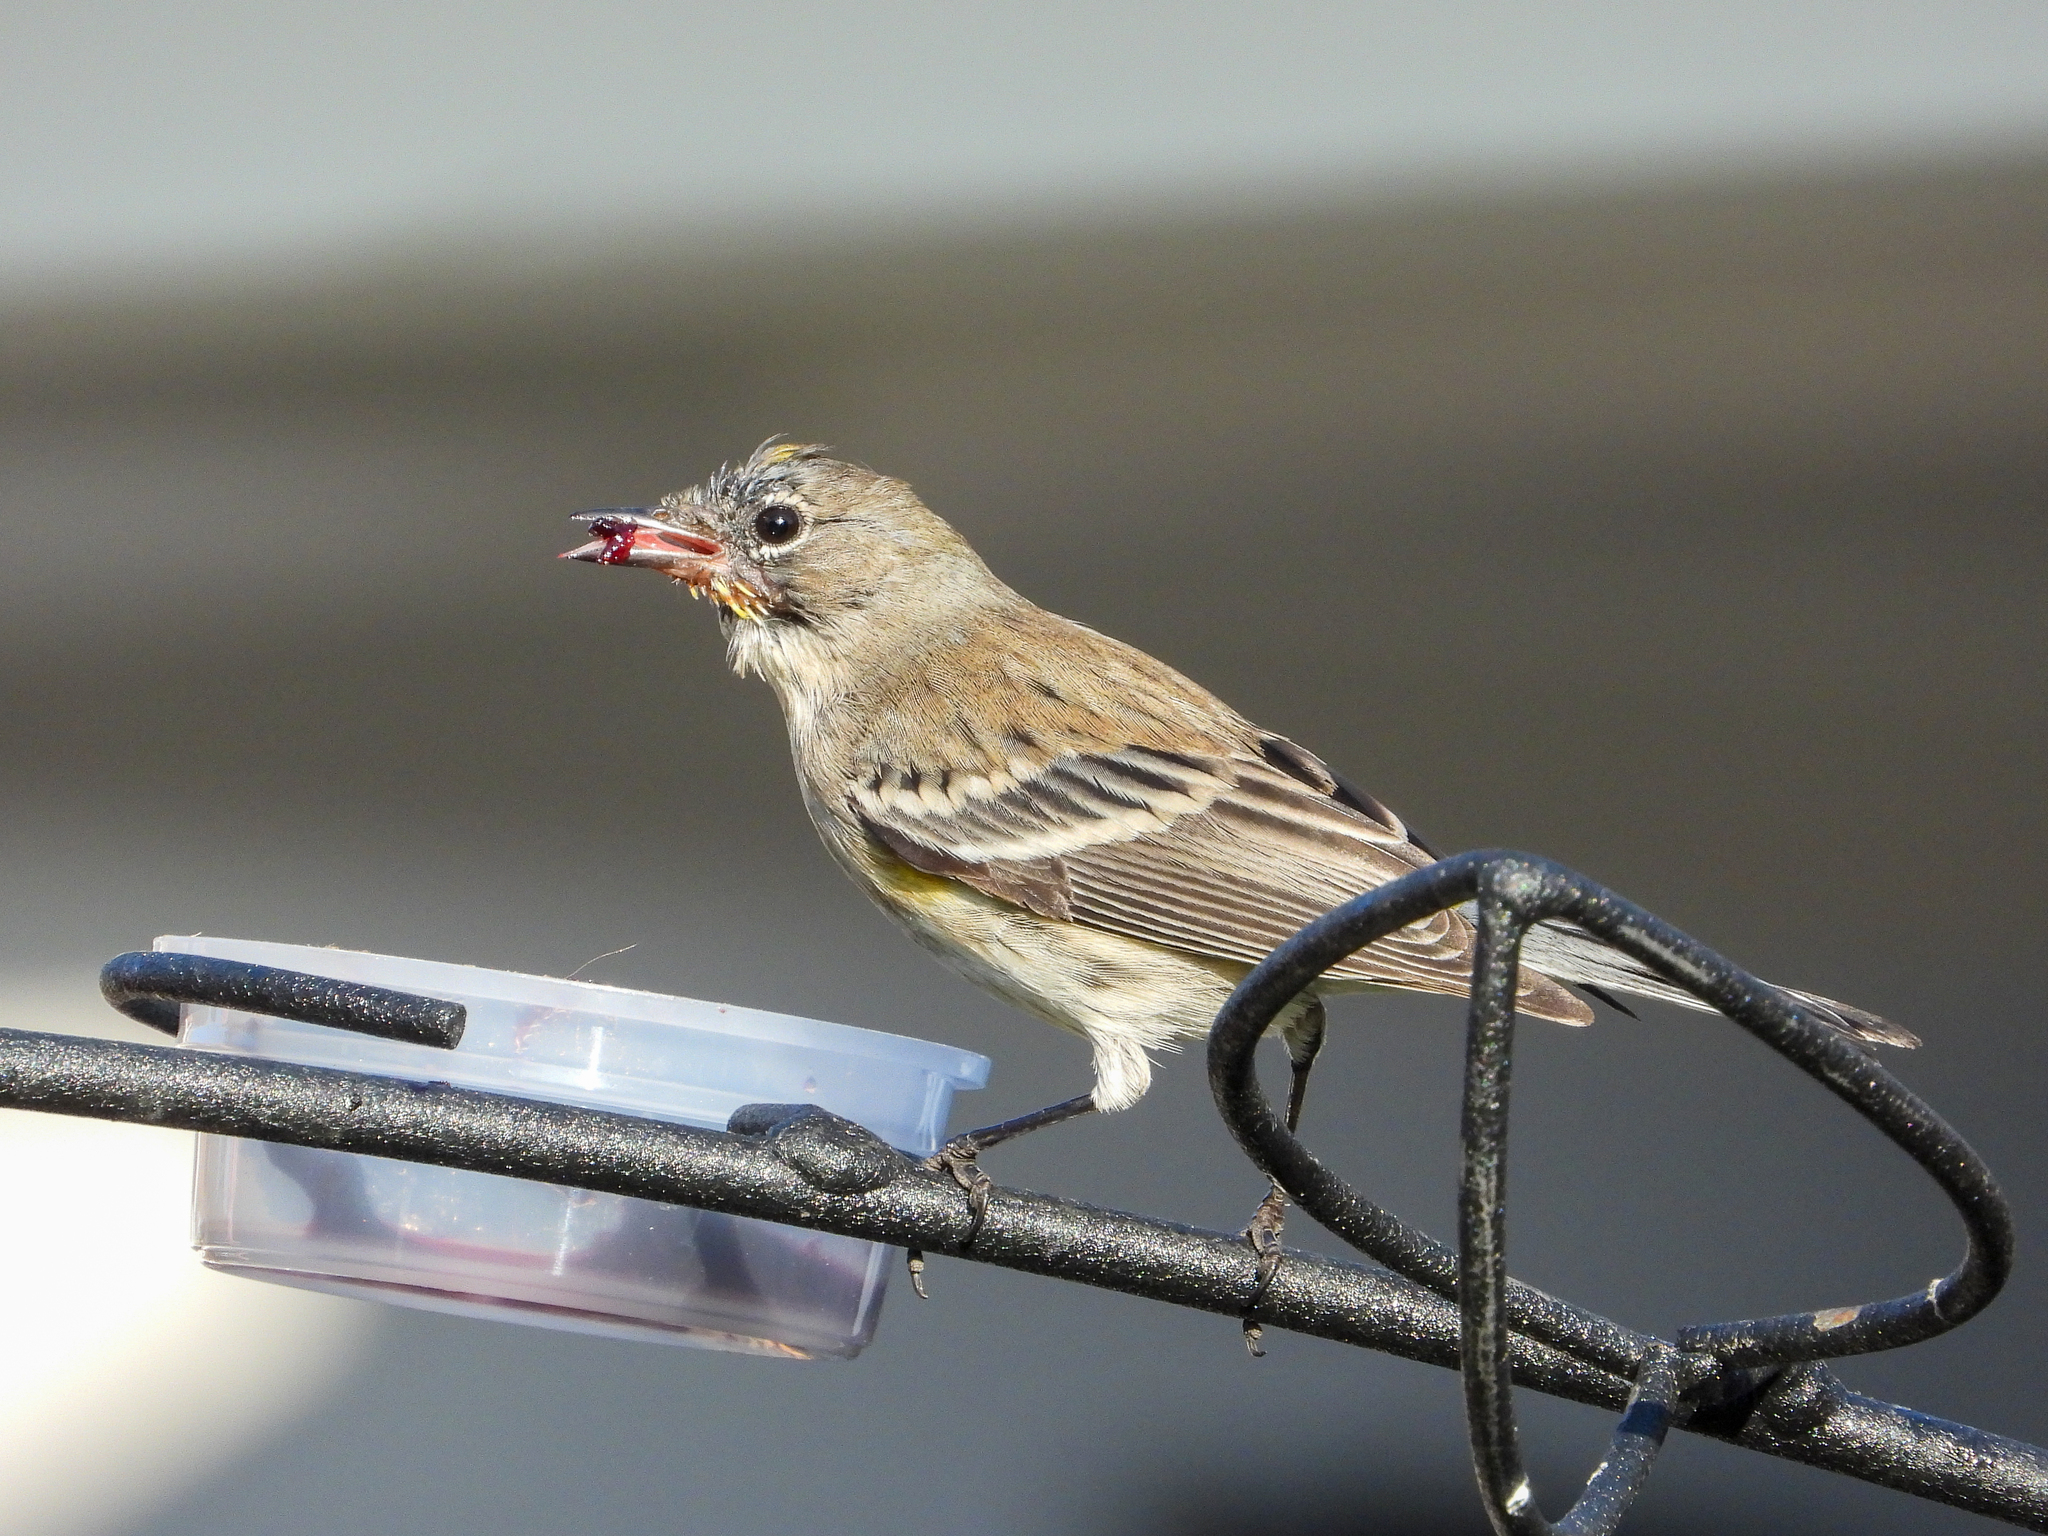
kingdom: Animalia
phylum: Chordata
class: Aves
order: Passeriformes
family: Parulidae
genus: Setophaga
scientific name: Setophaga coronata
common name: Myrtle warbler
